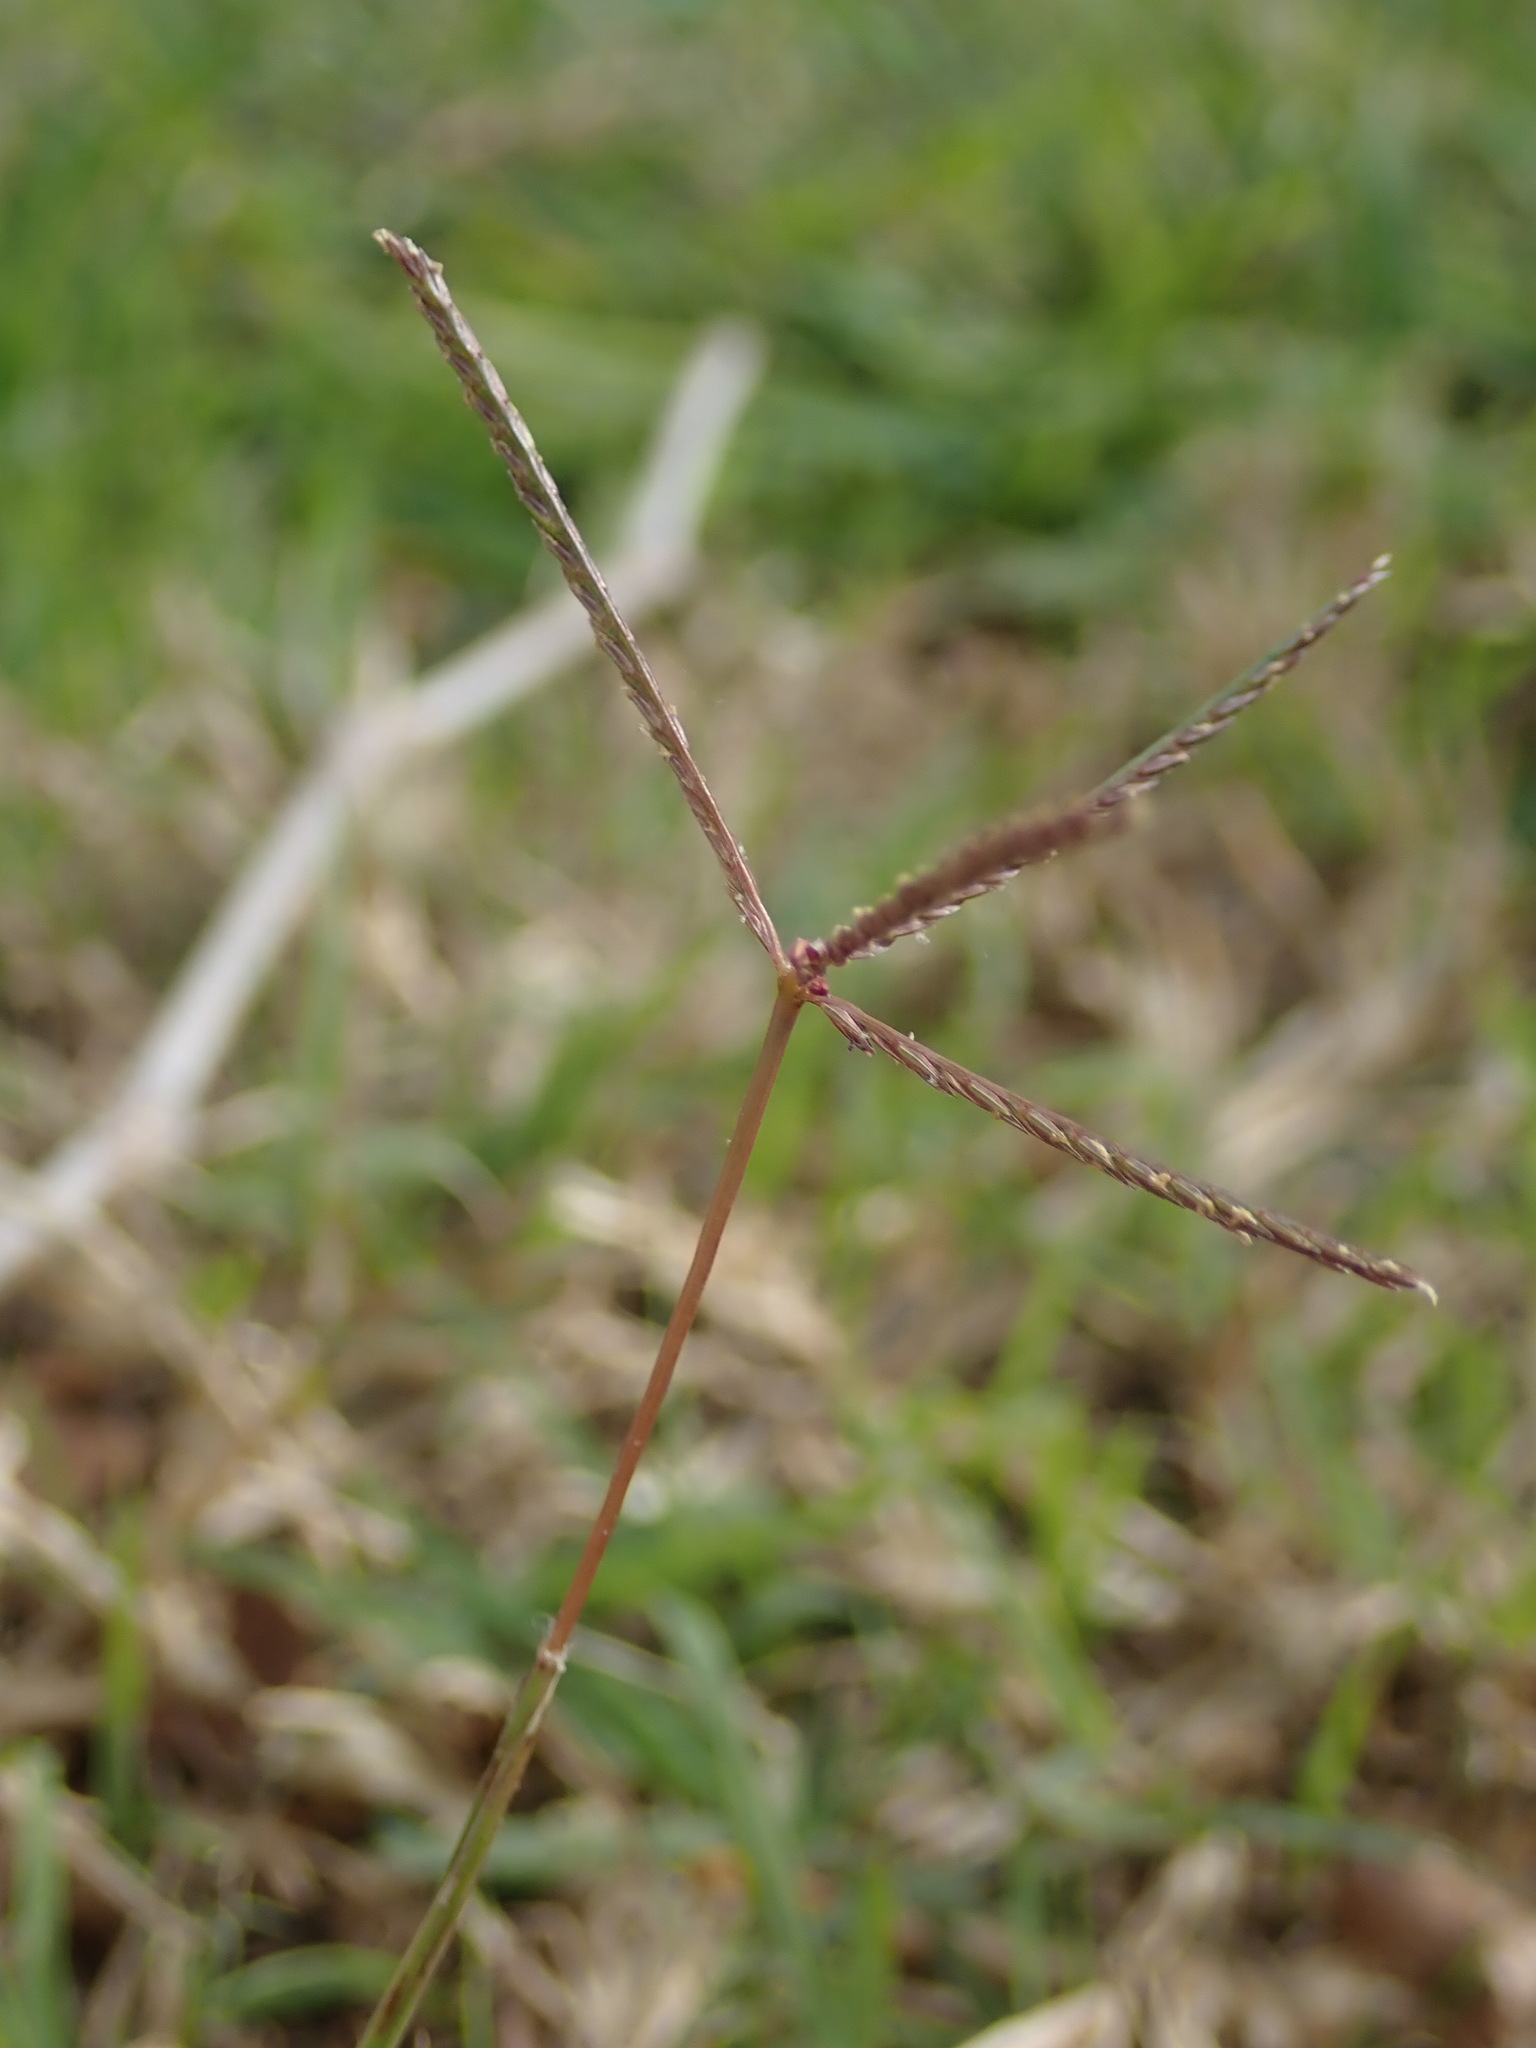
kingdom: Plantae
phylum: Tracheophyta
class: Liliopsida
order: Poales
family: Poaceae
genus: Cynodon
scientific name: Cynodon dactylon
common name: Bermuda grass
